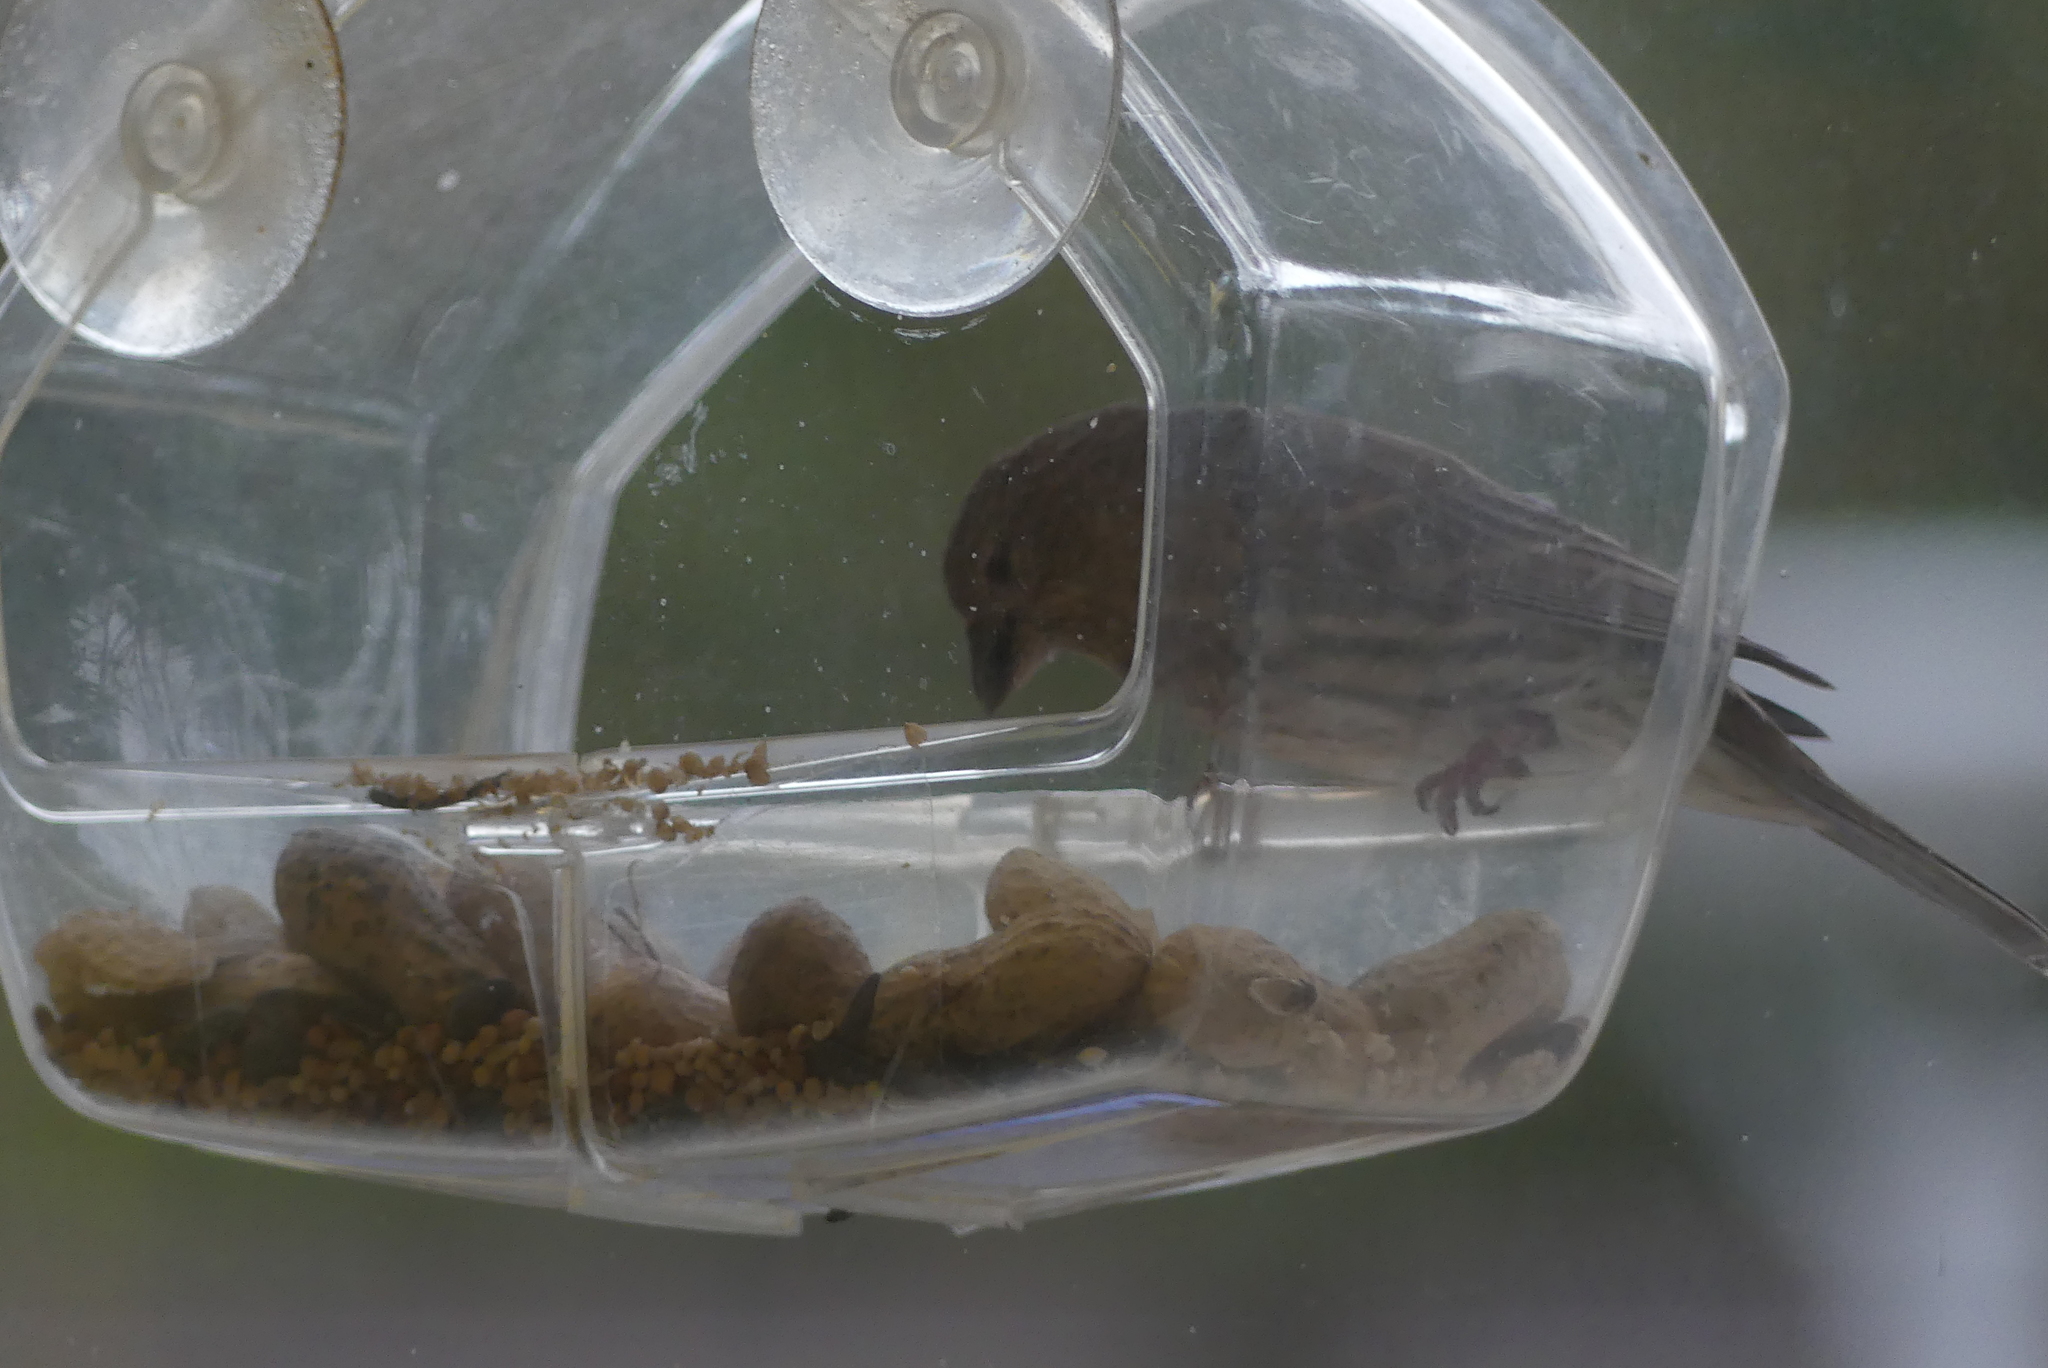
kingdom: Animalia
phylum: Chordata
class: Aves
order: Passeriformes
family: Fringillidae
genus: Haemorhous
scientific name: Haemorhous mexicanus
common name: House finch
